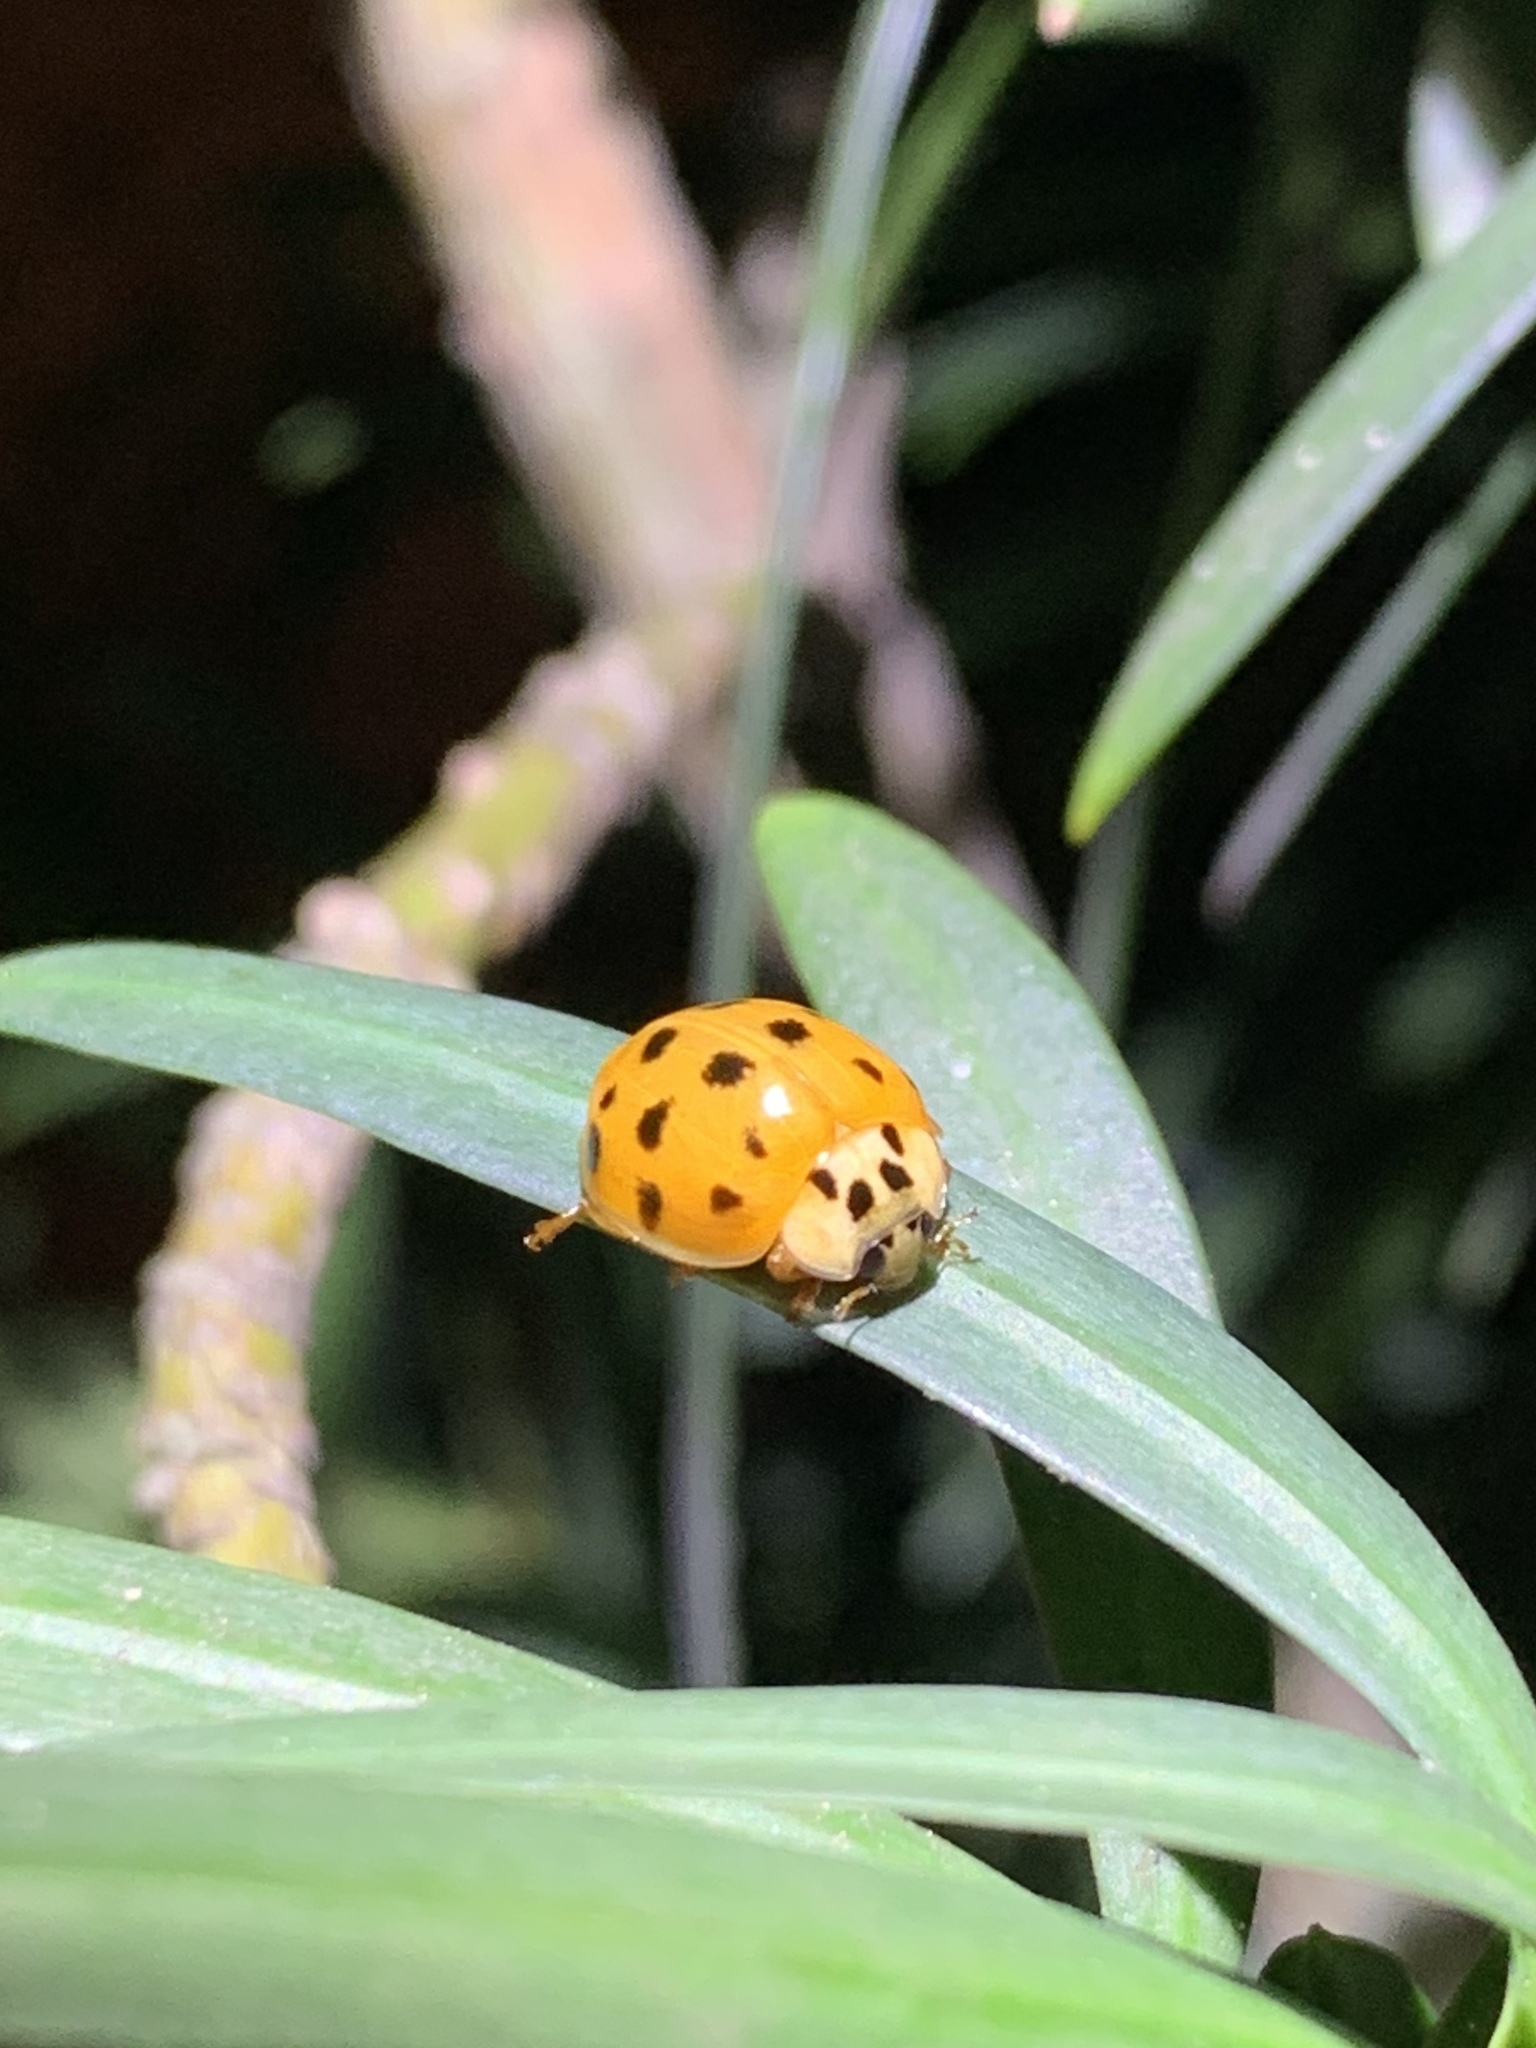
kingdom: Animalia
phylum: Arthropoda
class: Insecta
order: Coleoptera
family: Coccinellidae
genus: Harmonia
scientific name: Harmonia axyridis
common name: Harlequin ladybird
